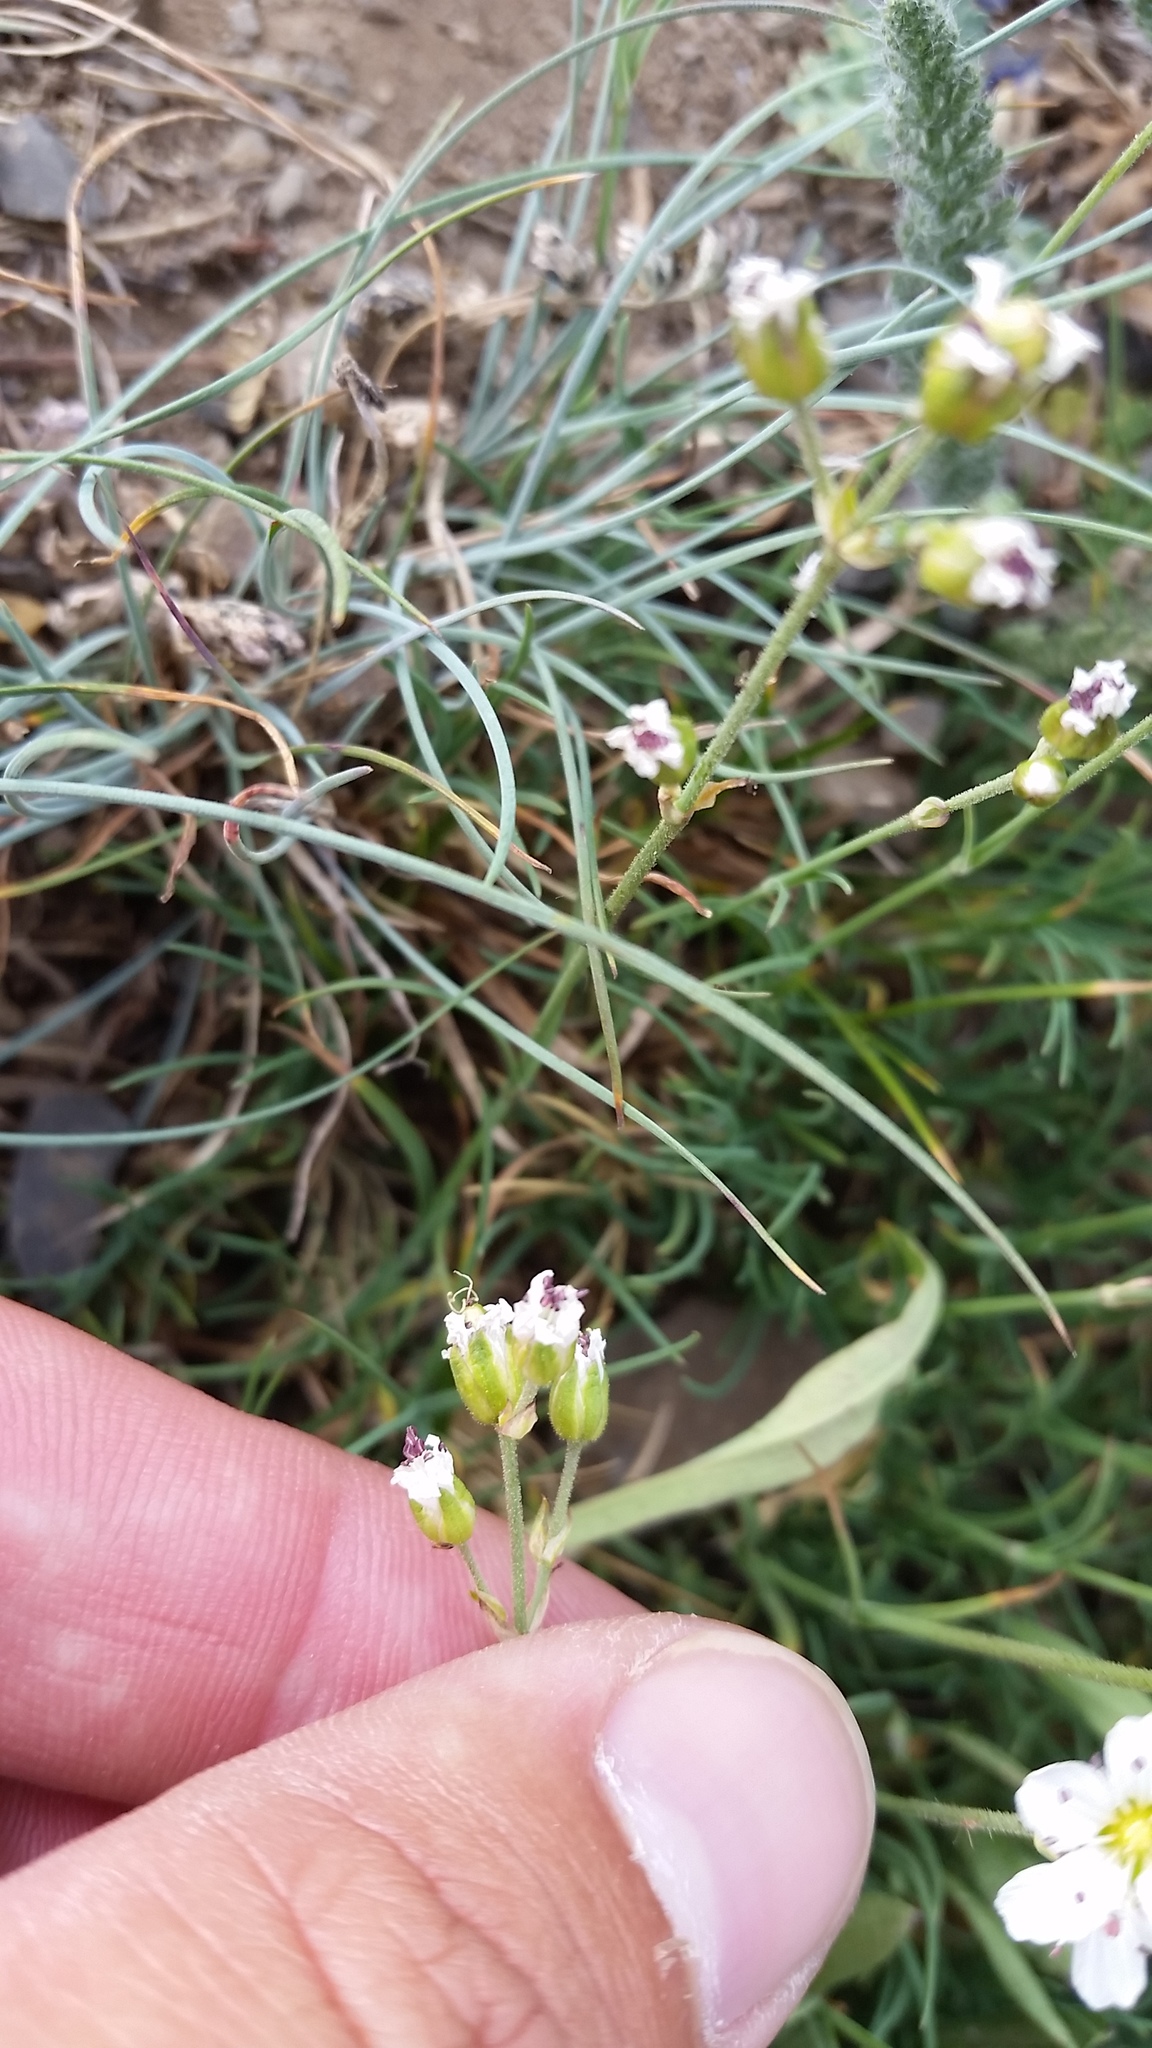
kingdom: Plantae
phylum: Tracheophyta
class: Magnoliopsida
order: Caryophyllales
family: Caryophyllaceae
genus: Eremogone
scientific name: Eremogone capillaris
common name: Slender mountain sandwort
